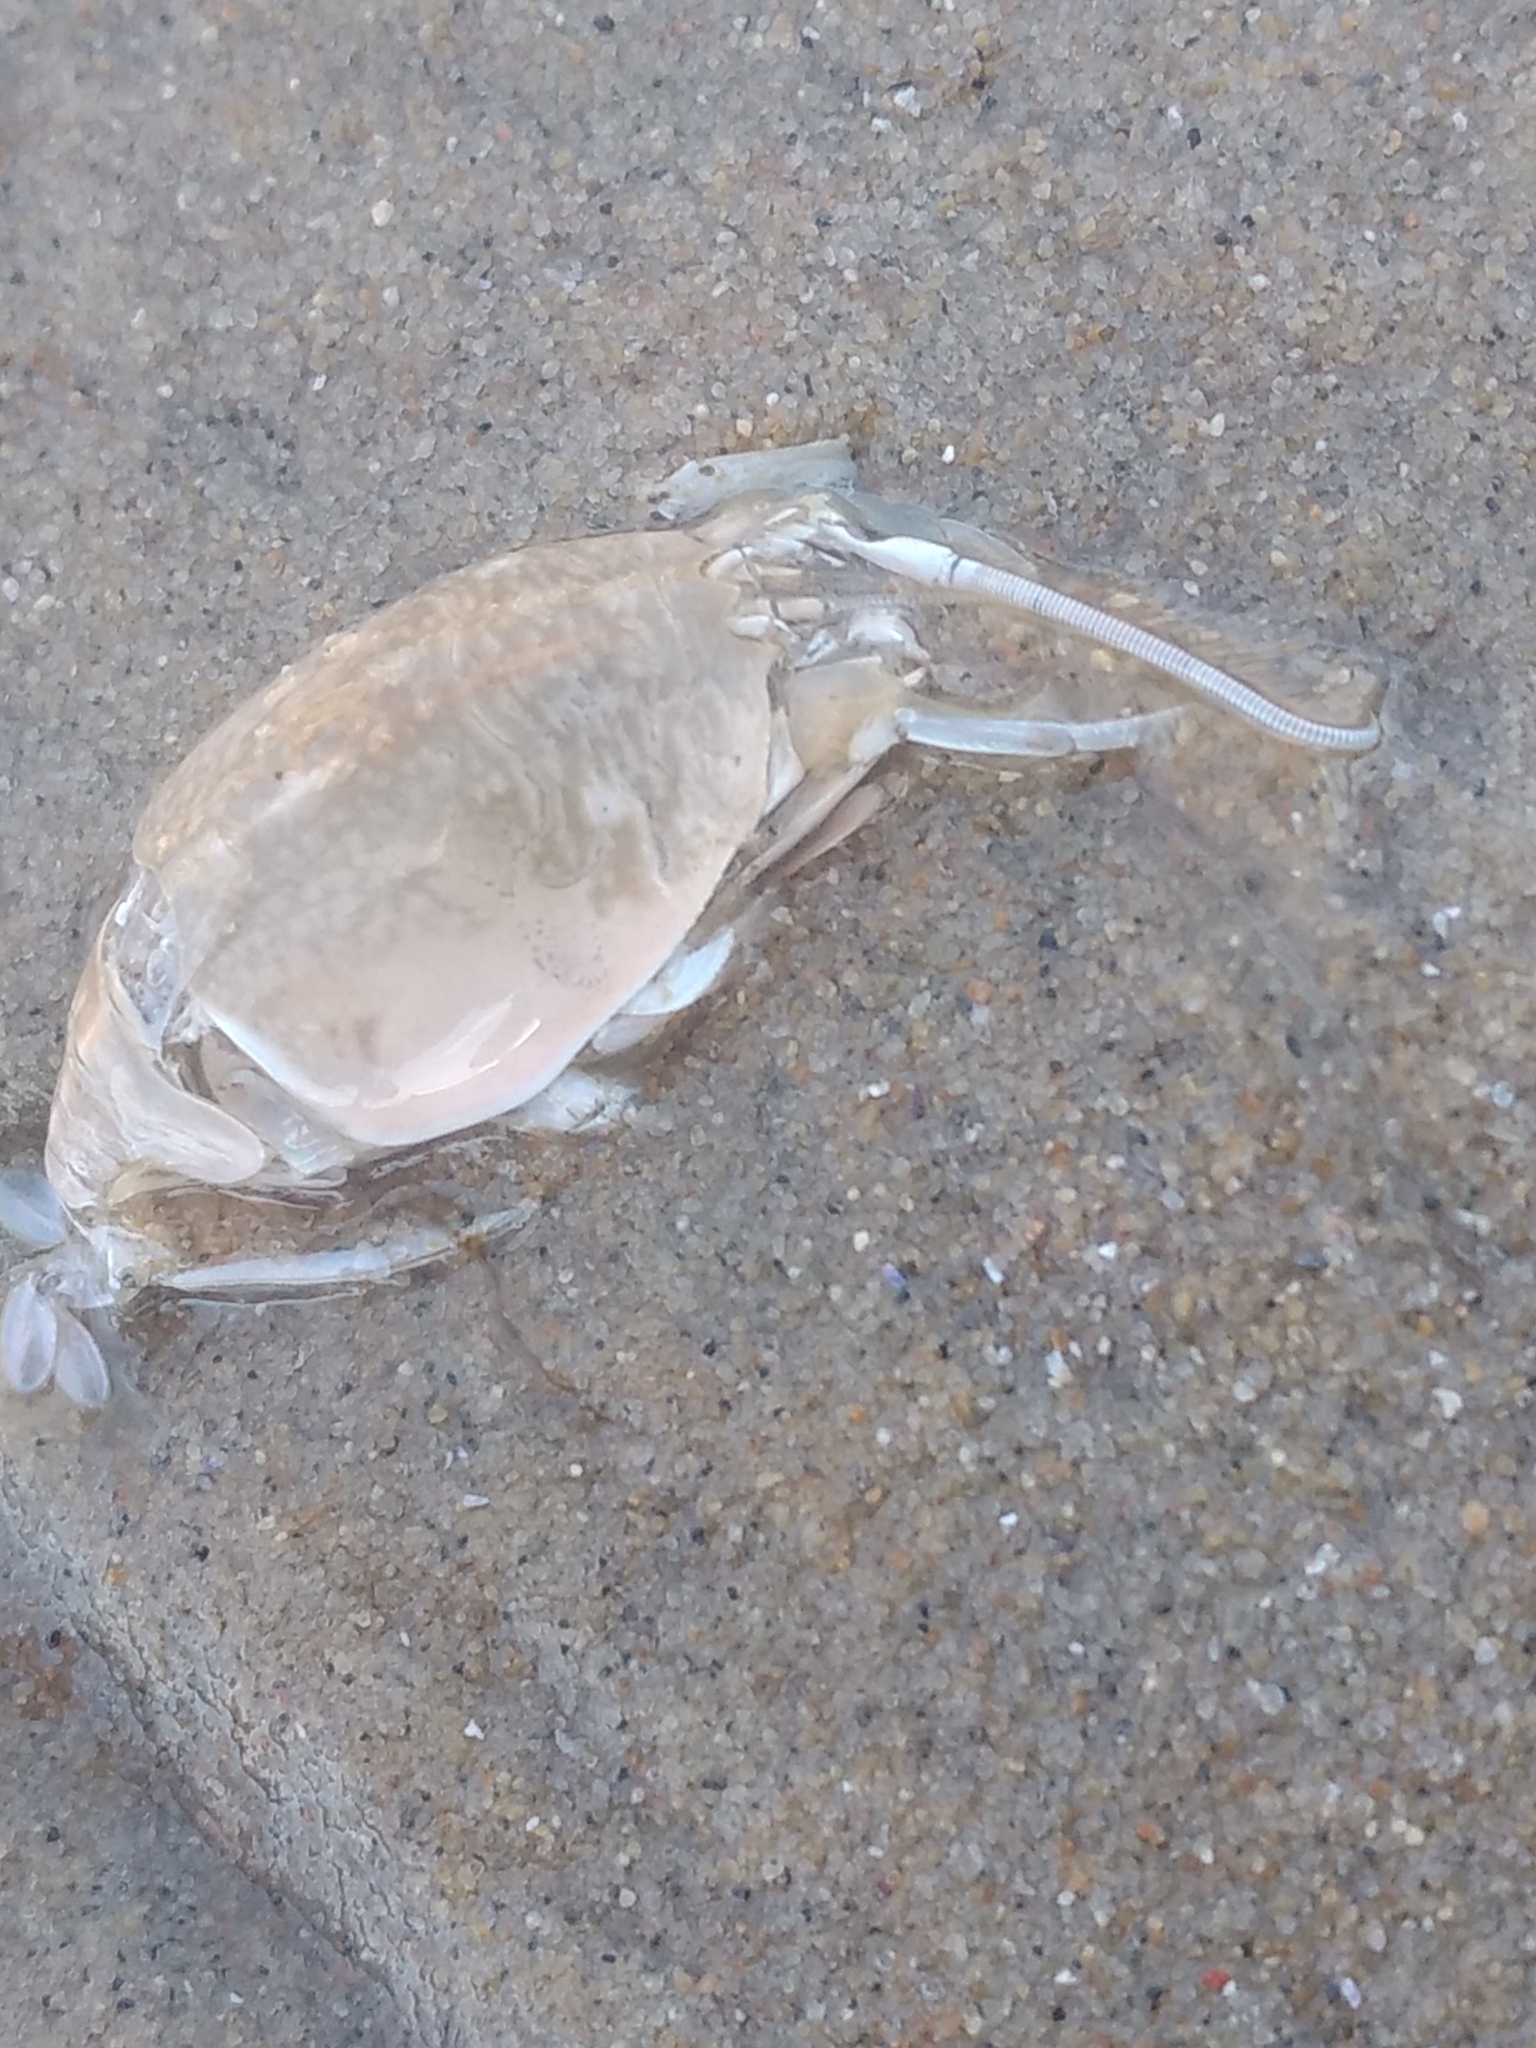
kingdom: Animalia
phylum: Arthropoda
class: Malacostraca
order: Decapoda
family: Hippidae
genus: Emerita
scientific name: Emerita analoga
